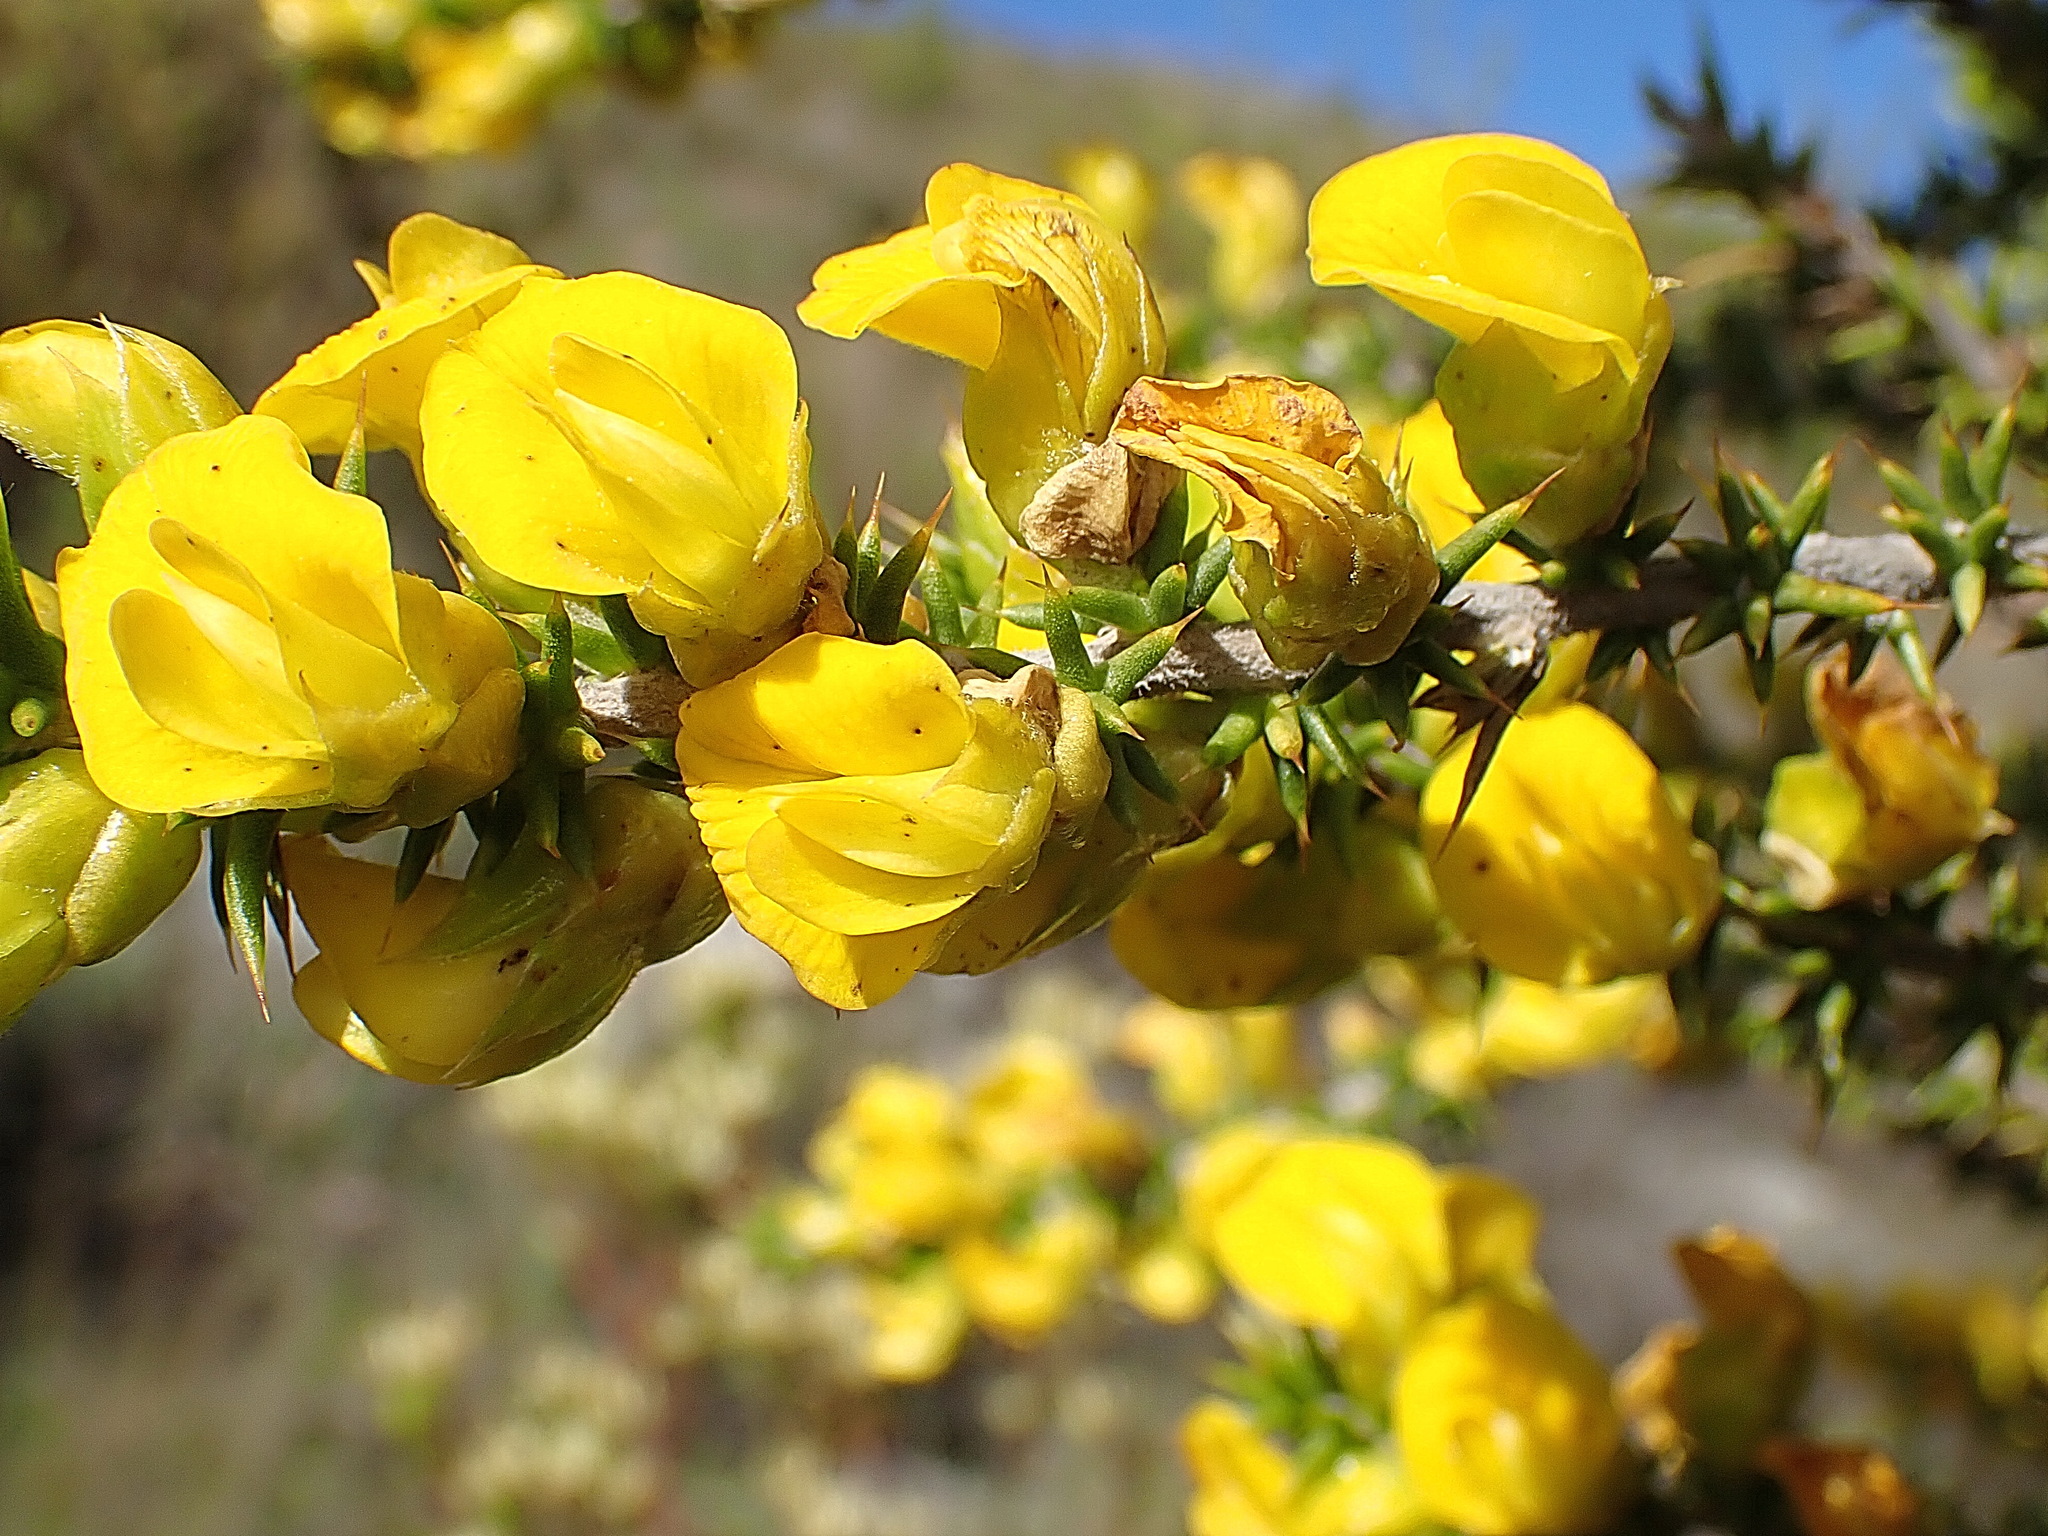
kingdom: Plantae
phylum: Tracheophyta
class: Magnoliopsida
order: Fabales
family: Fabaceae
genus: Aspalathus
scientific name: Aspalathus aciphylla
